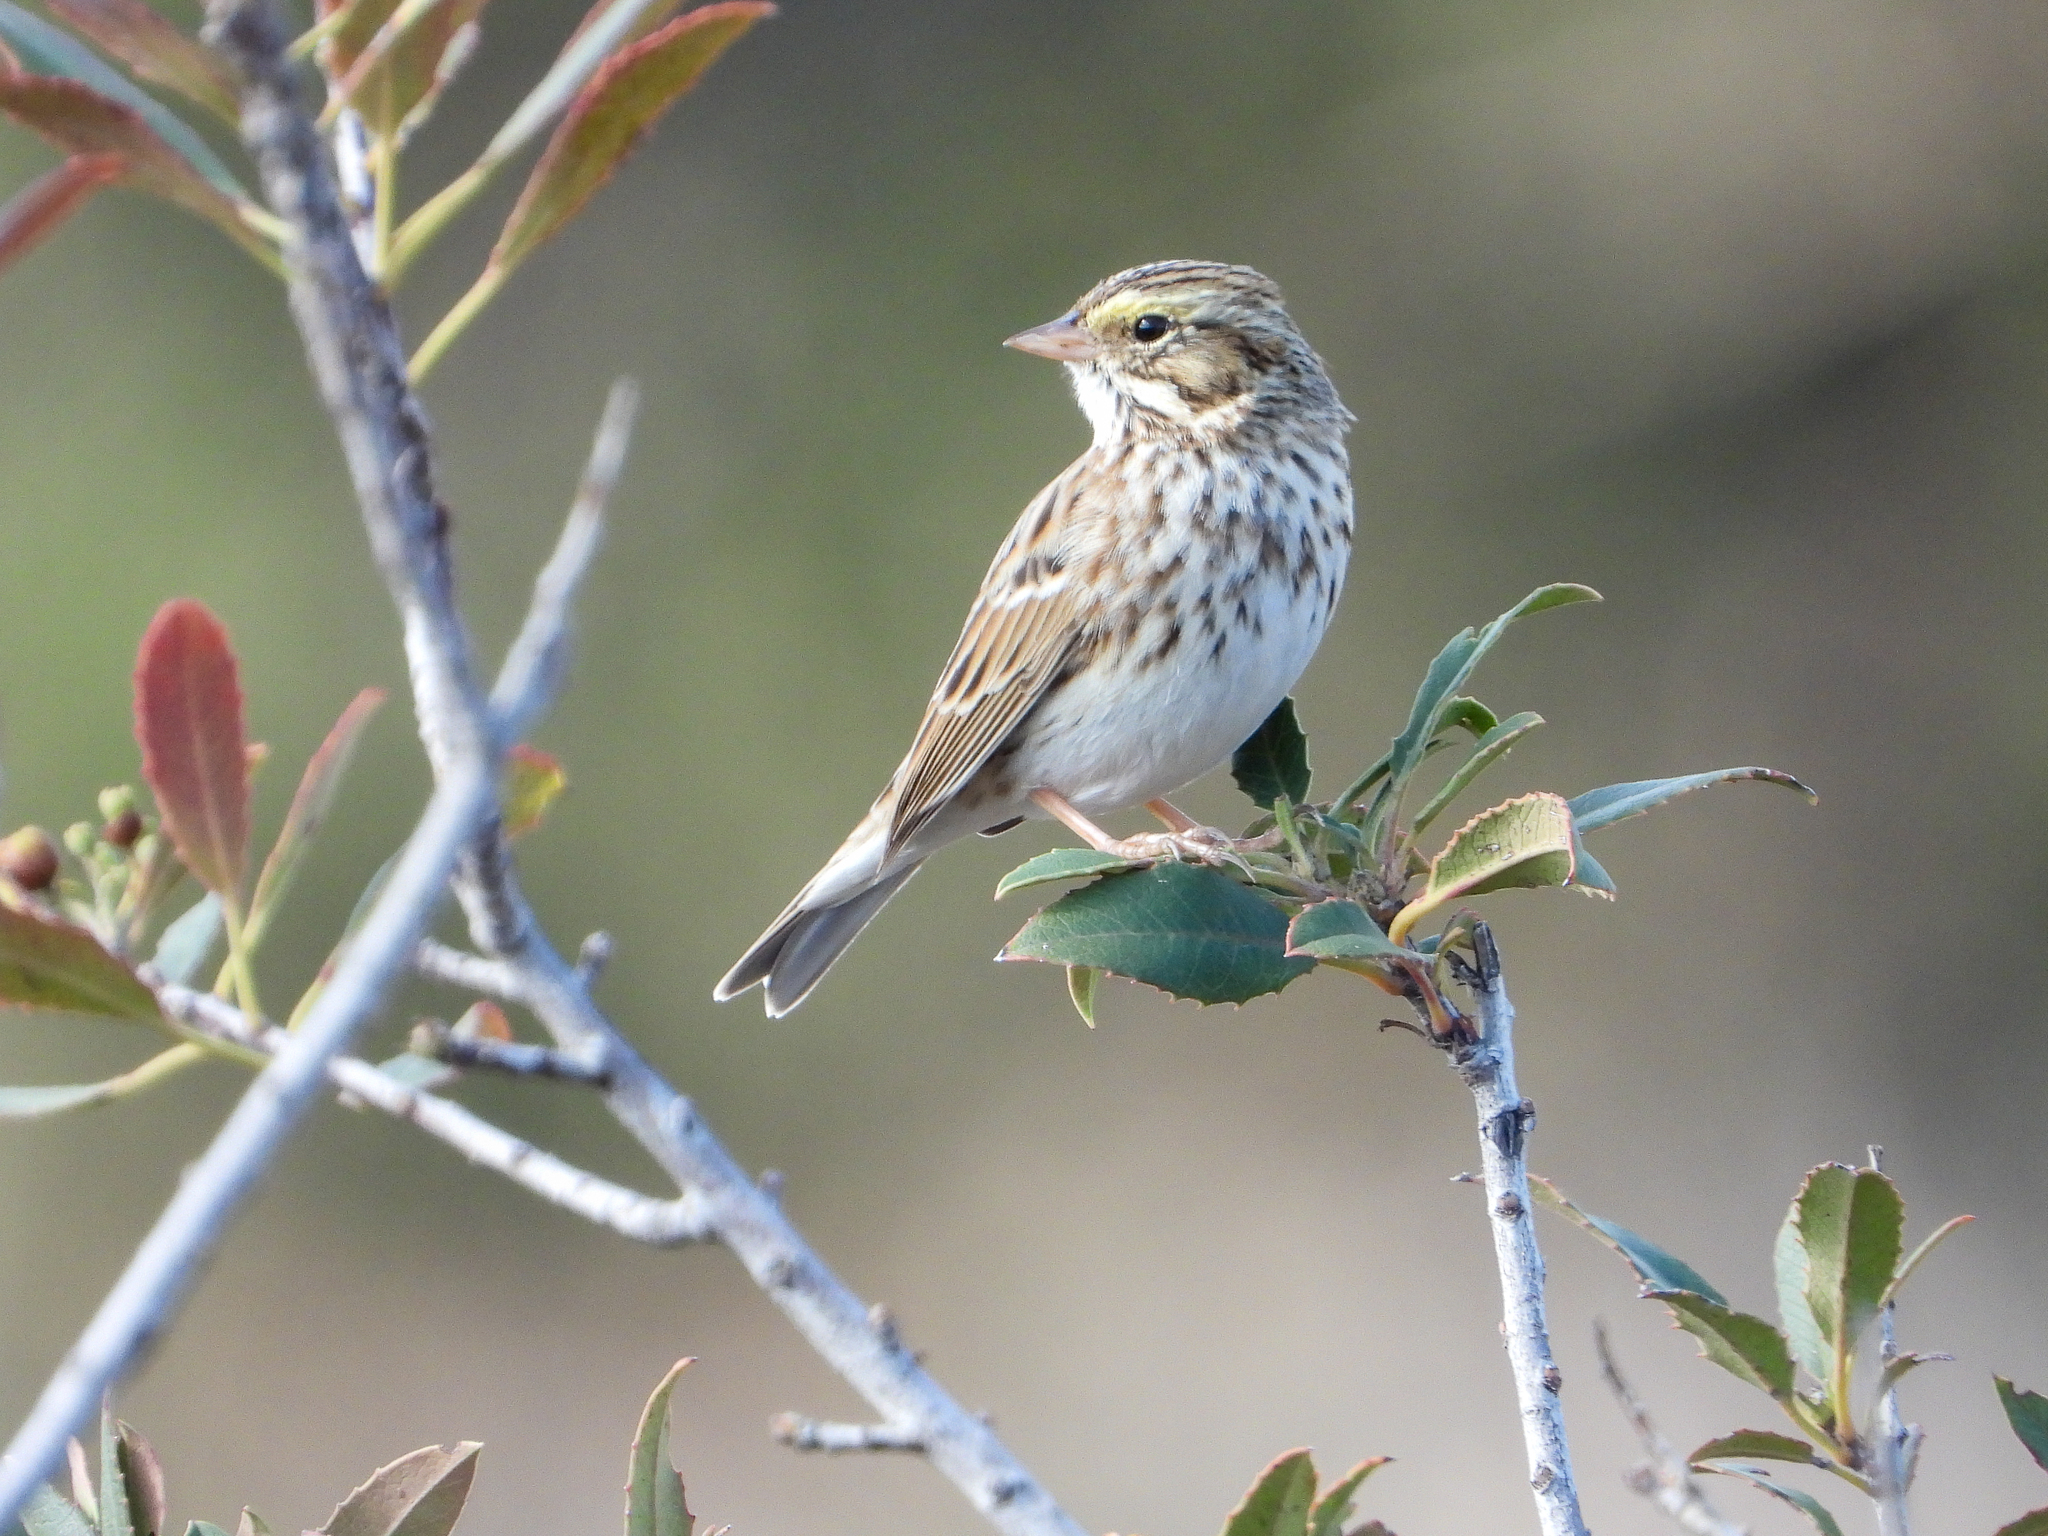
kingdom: Animalia
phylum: Chordata
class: Aves
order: Passeriformes
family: Passerellidae
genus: Passerculus
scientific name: Passerculus sandwichensis
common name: Savannah sparrow
